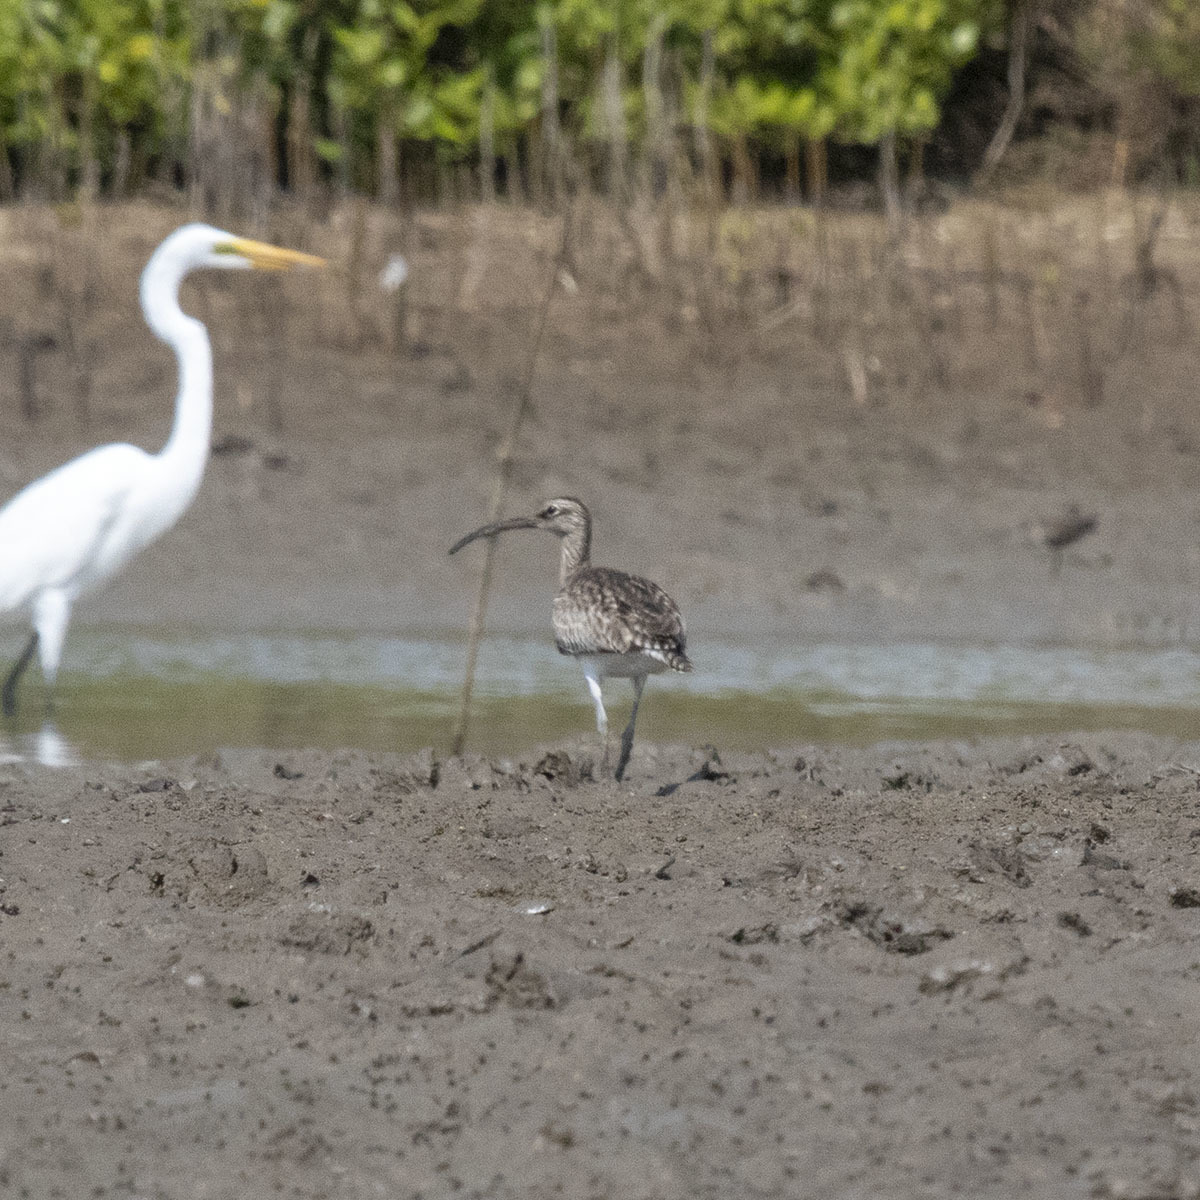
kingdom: Animalia
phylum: Chordata
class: Aves
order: Charadriiformes
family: Scolopacidae
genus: Numenius
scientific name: Numenius arquata
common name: Eurasian curlew
